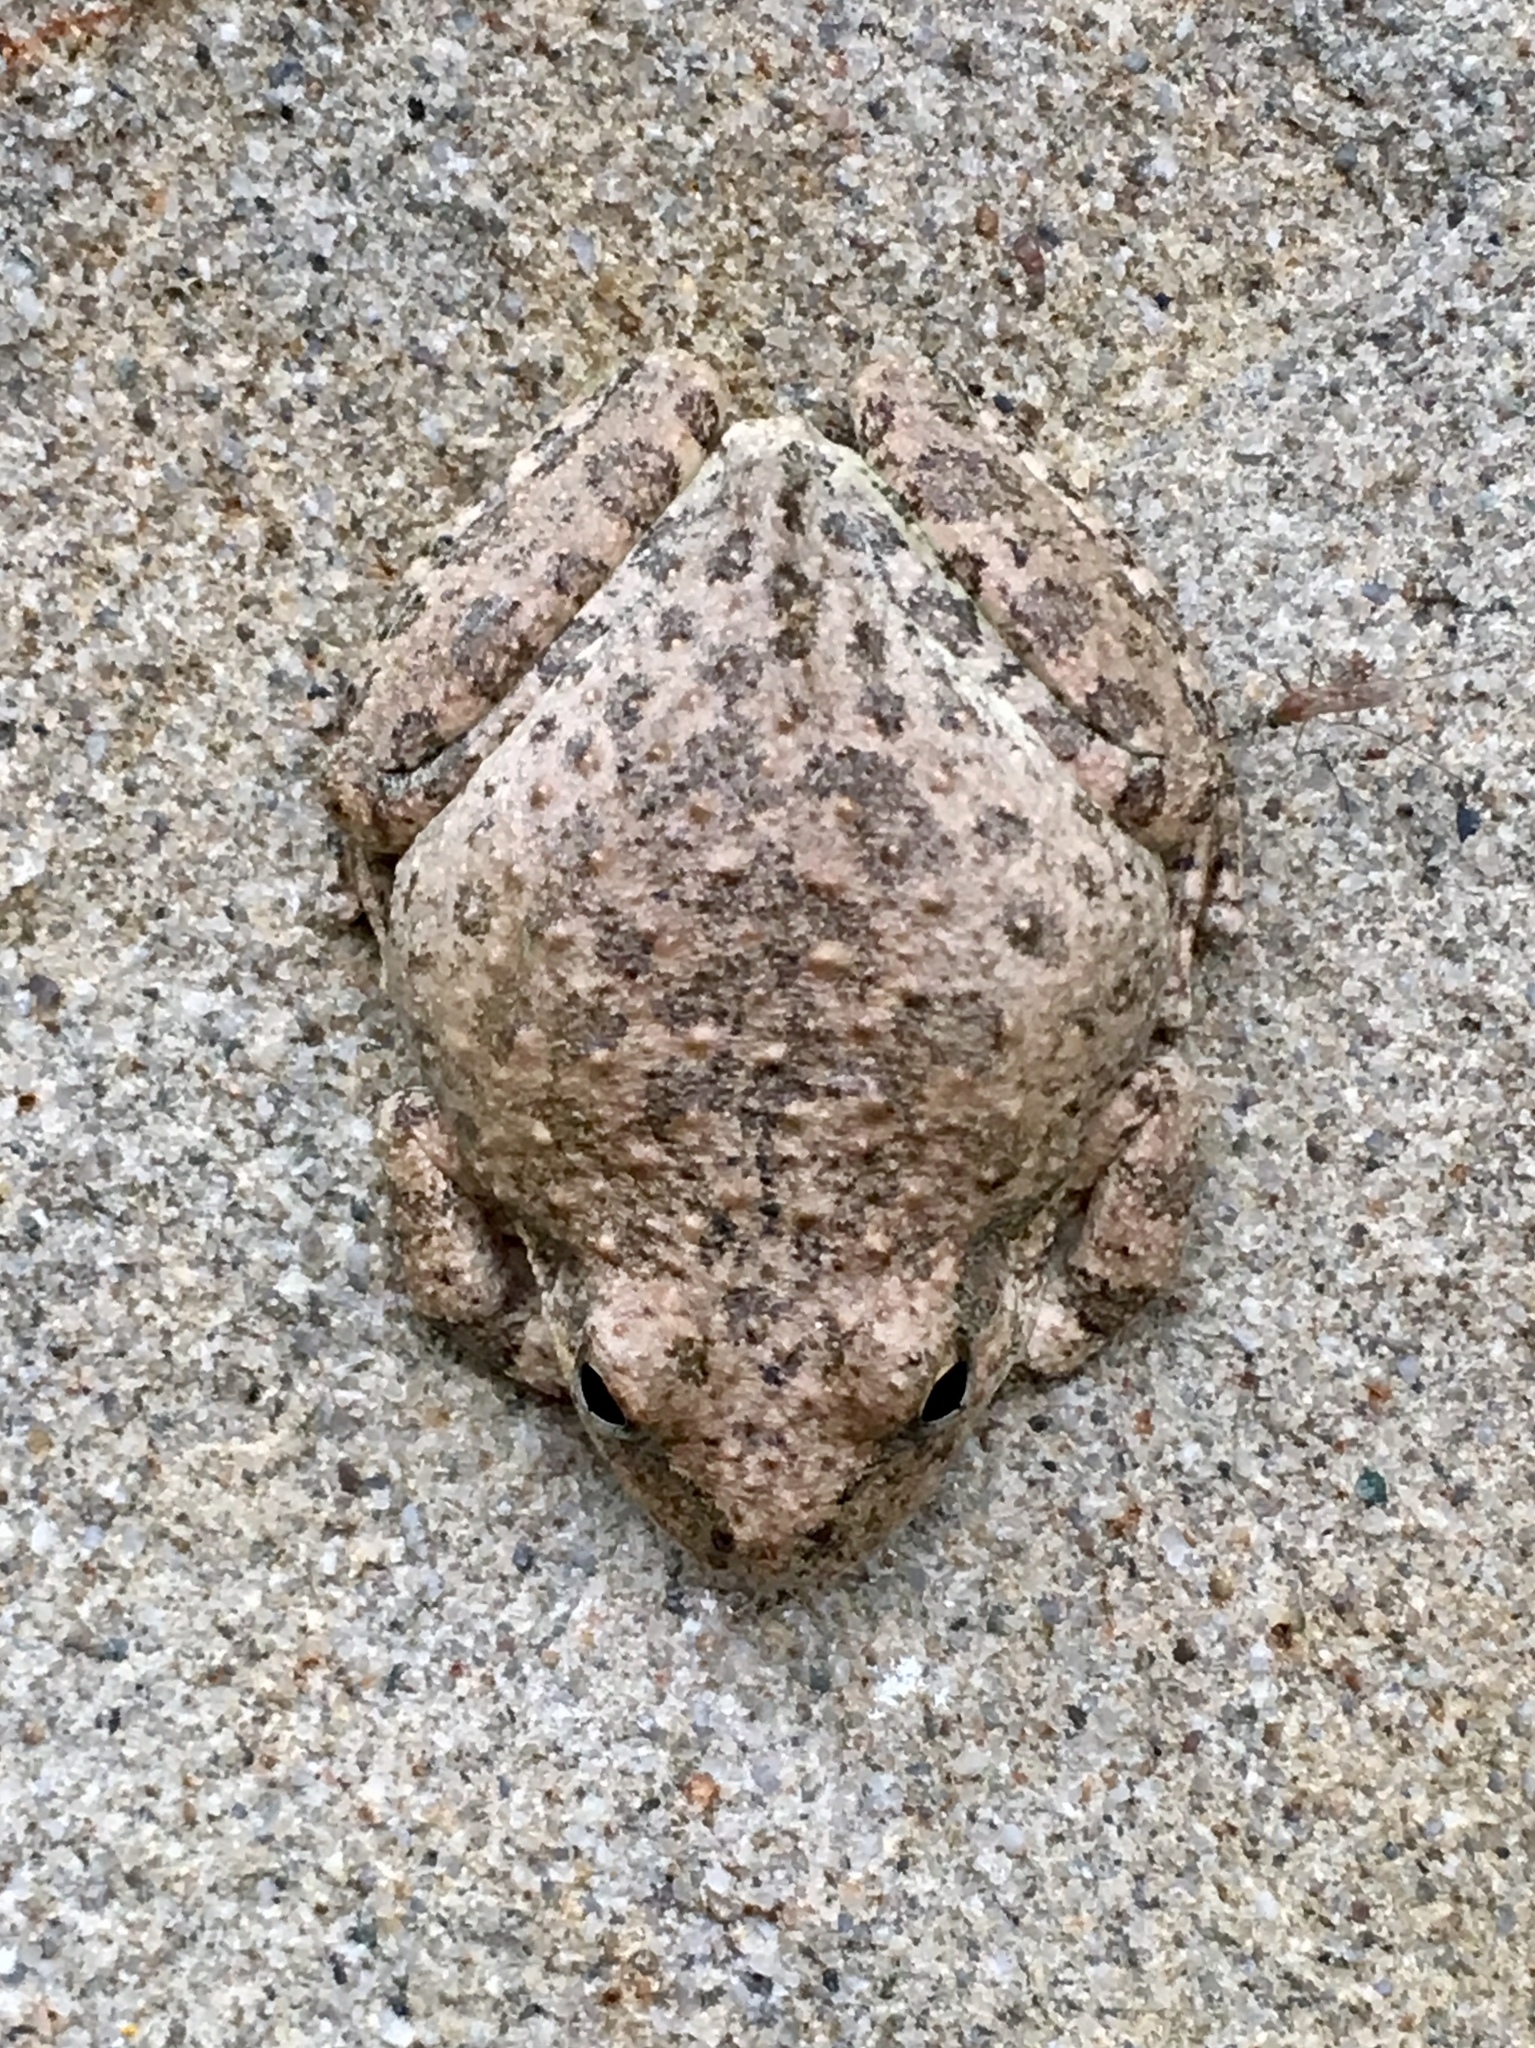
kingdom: Animalia
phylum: Chordata
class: Amphibia
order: Anura
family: Hylidae
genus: Pseudacris
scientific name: Pseudacris cadaverina
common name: California chorus frog
